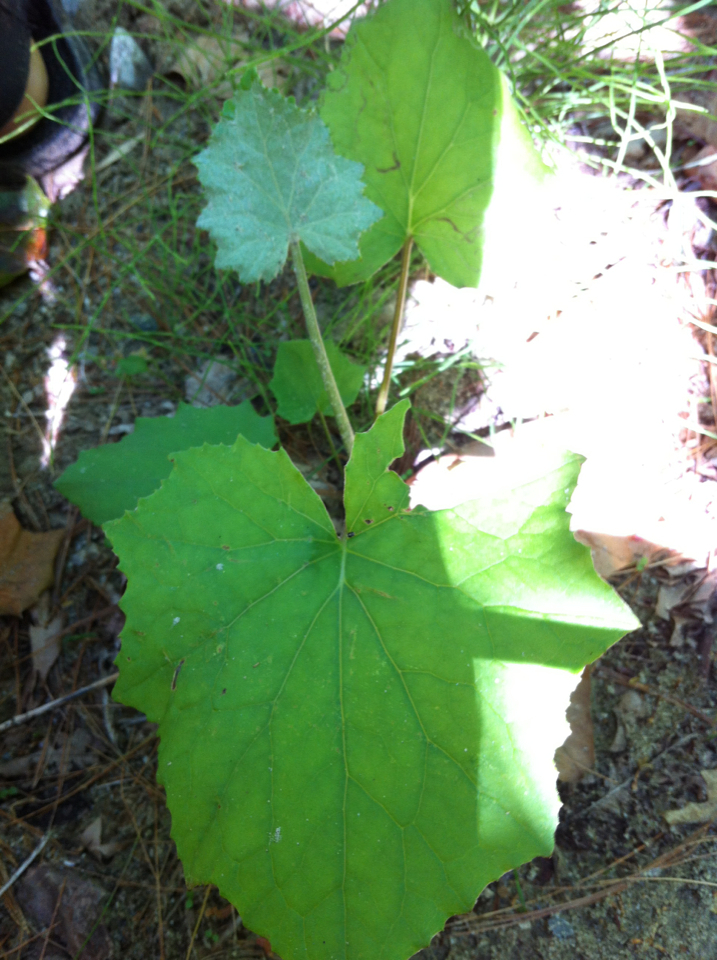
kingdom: Plantae
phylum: Tracheophyta
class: Magnoliopsida
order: Asterales
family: Asteraceae
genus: Tussilago
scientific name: Tussilago farfara
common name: Coltsfoot
